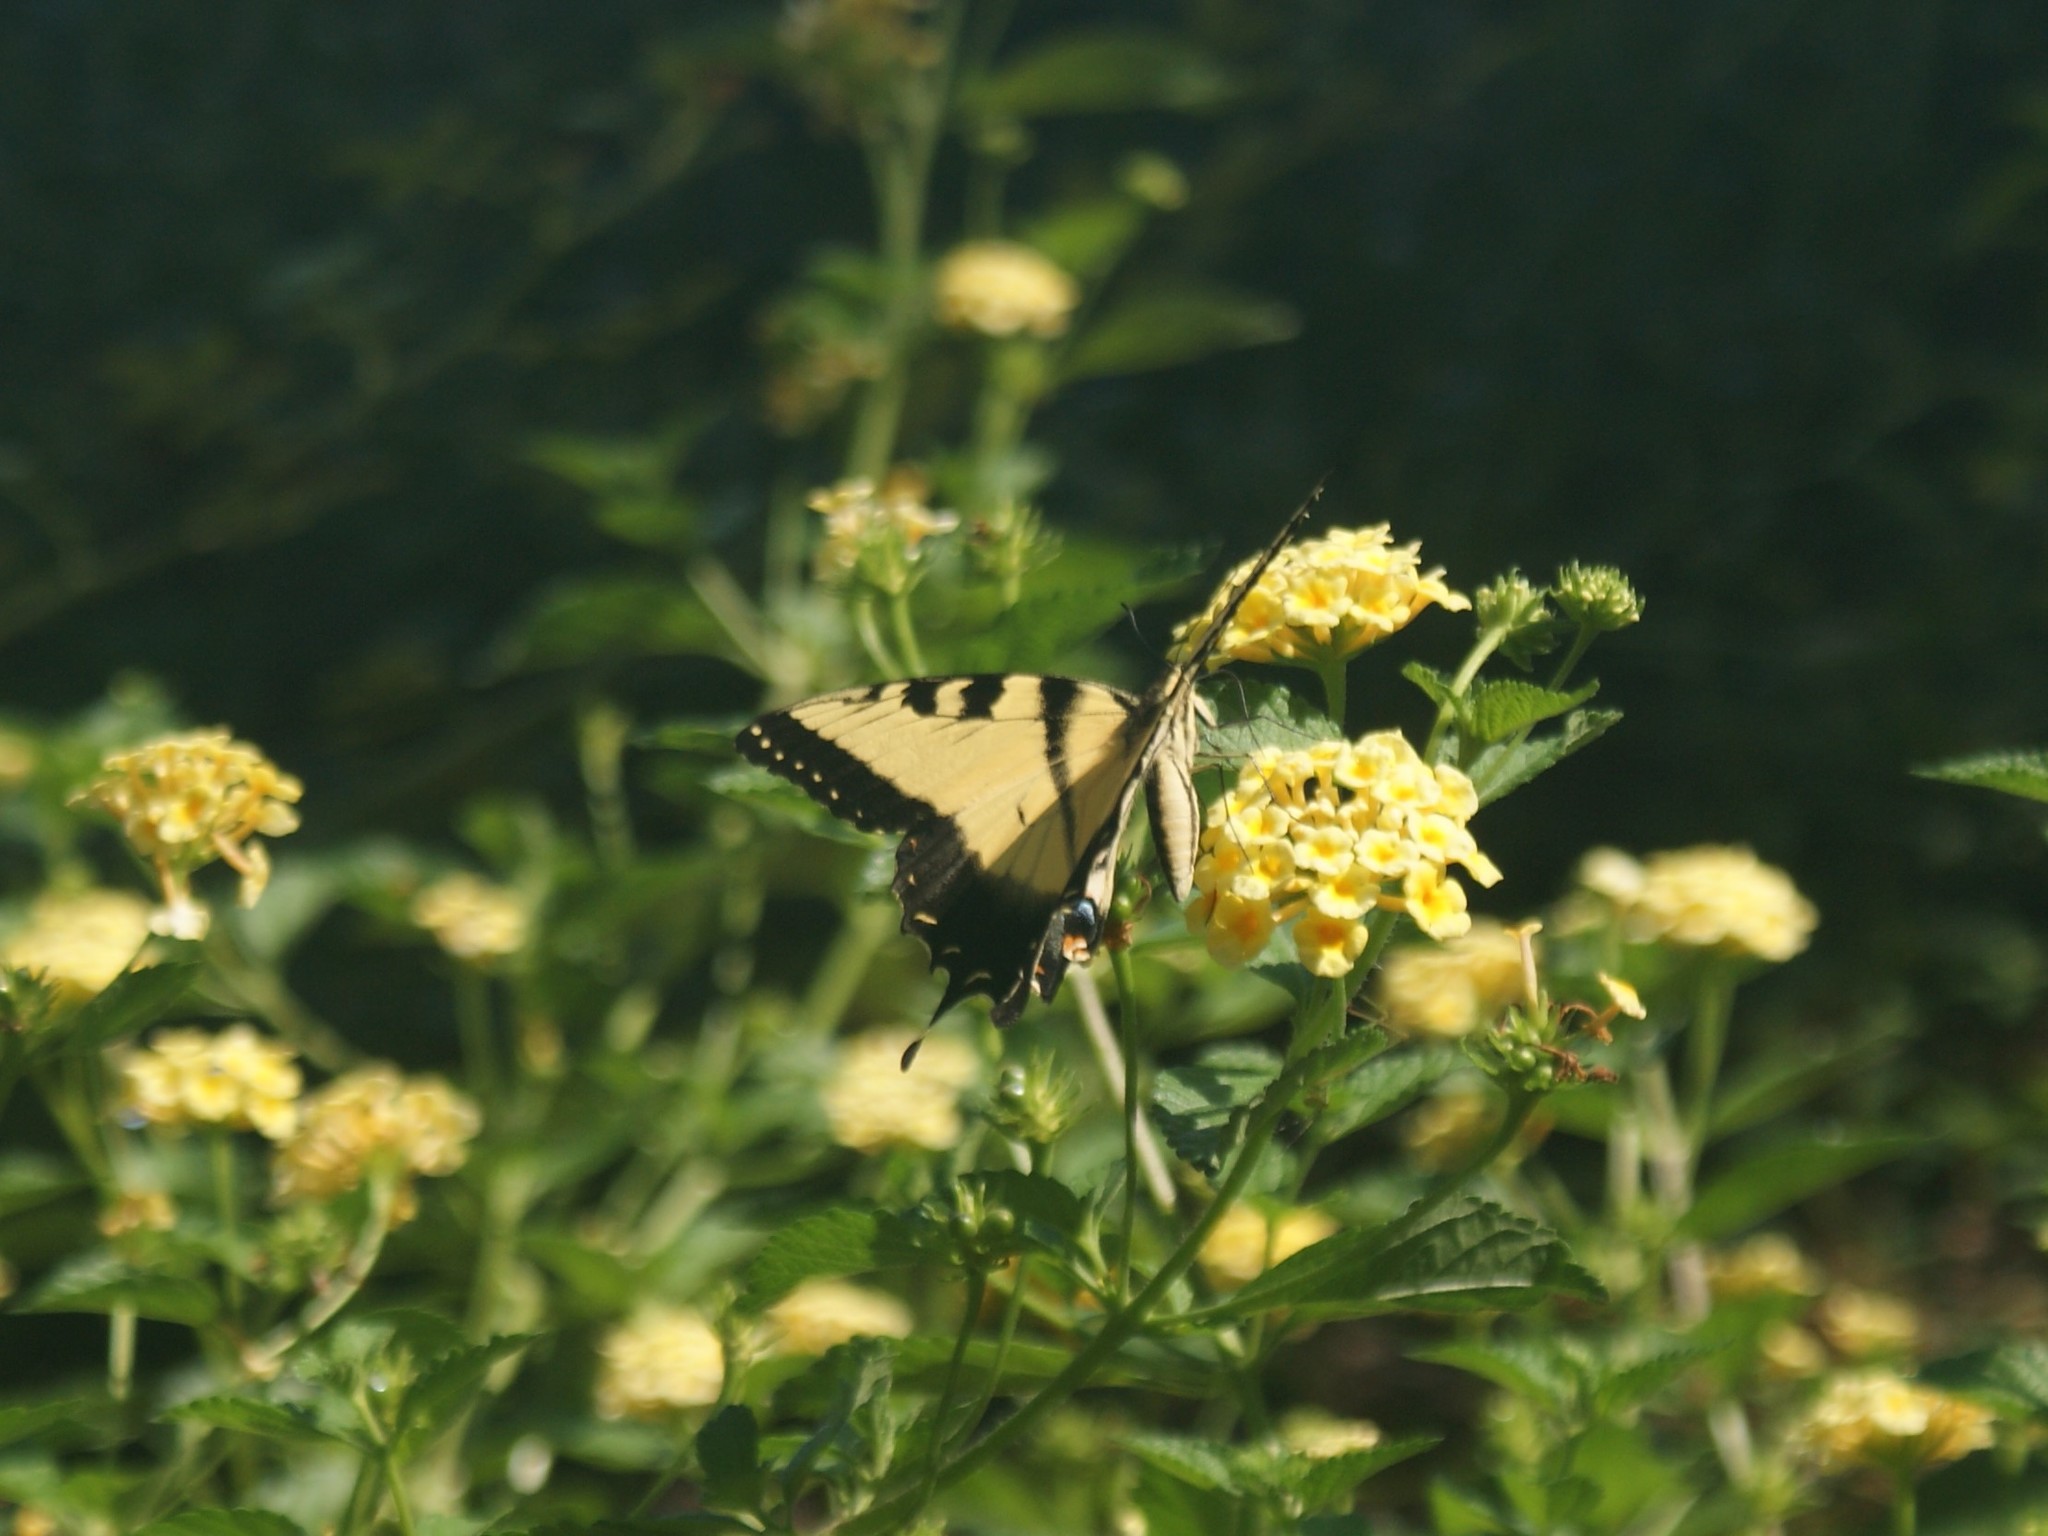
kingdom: Animalia
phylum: Arthropoda
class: Insecta
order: Lepidoptera
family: Papilionidae
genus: Papilio
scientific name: Papilio glaucus
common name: Tiger swallowtail
